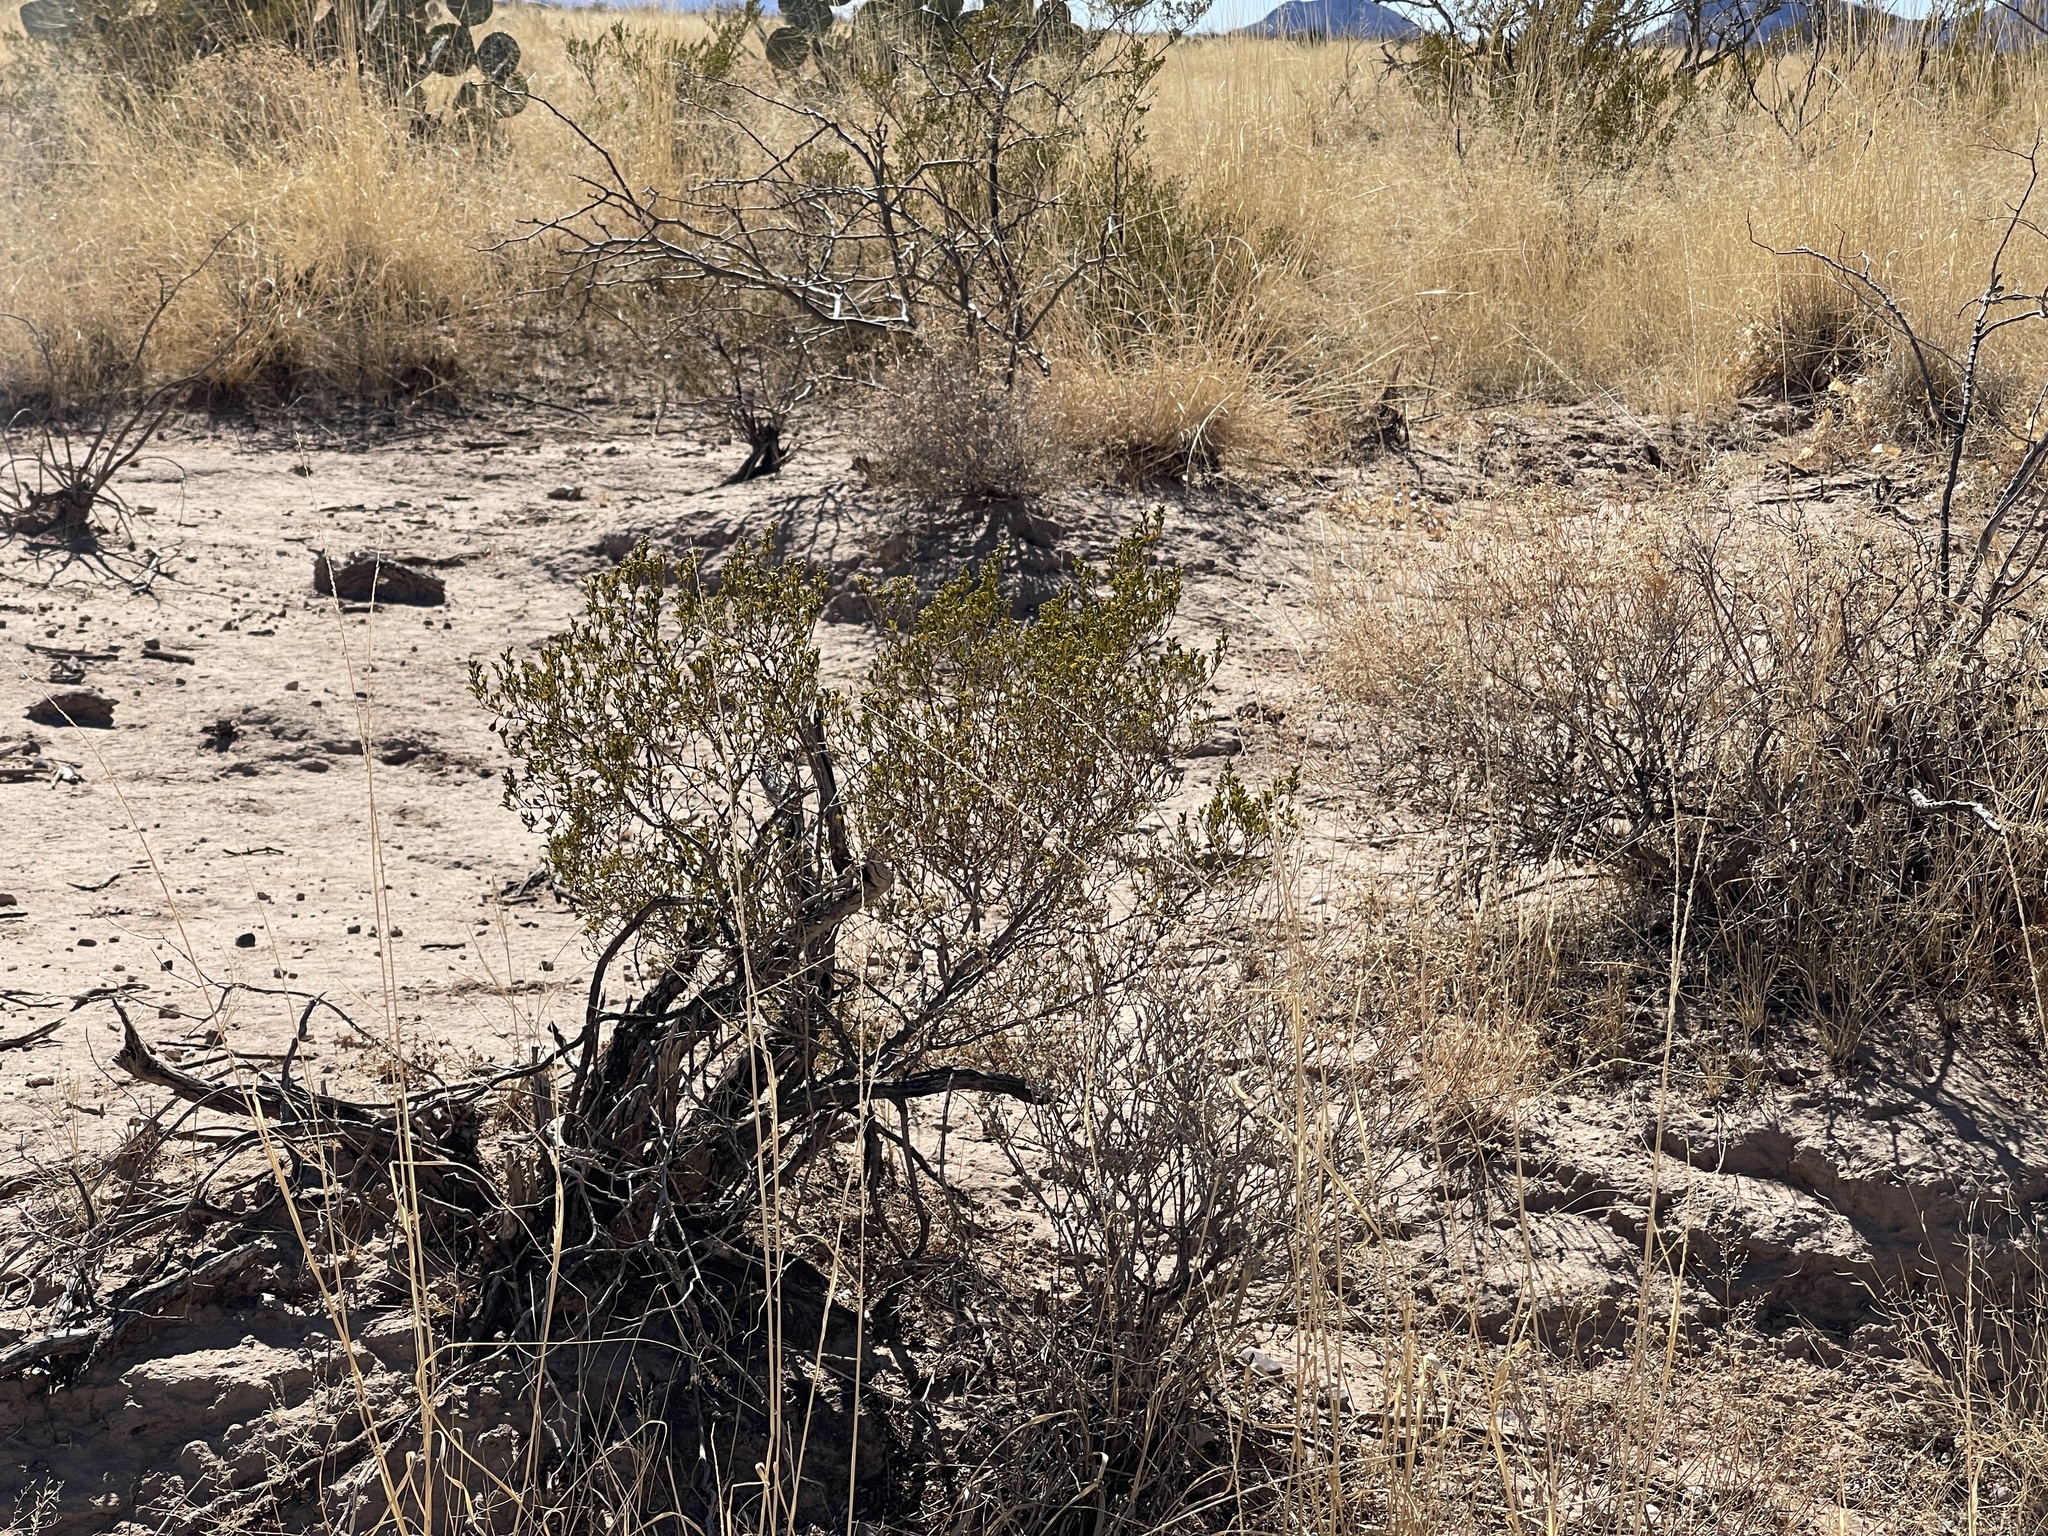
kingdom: Plantae
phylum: Tracheophyta
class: Magnoliopsida
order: Zygophyllales
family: Zygophyllaceae
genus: Larrea
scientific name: Larrea tridentata
